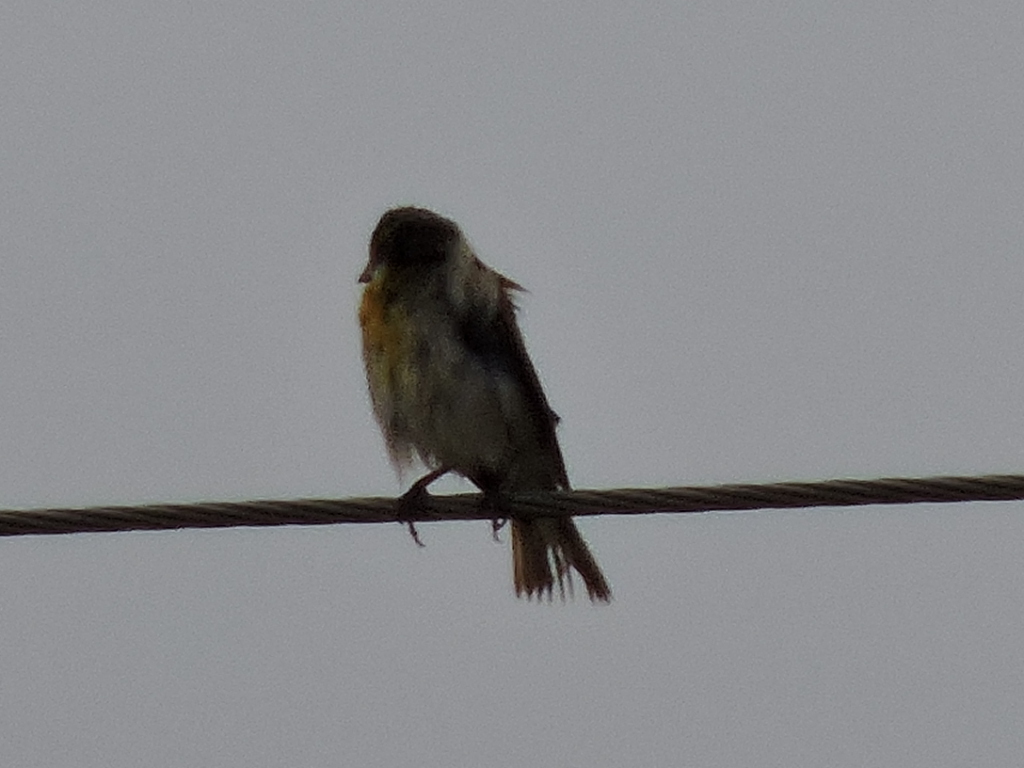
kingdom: Animalia
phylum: Chordata
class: Aves
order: Passeriformes
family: Cardinalidae
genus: Spiza
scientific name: Spiza americana
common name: Dickcissel
